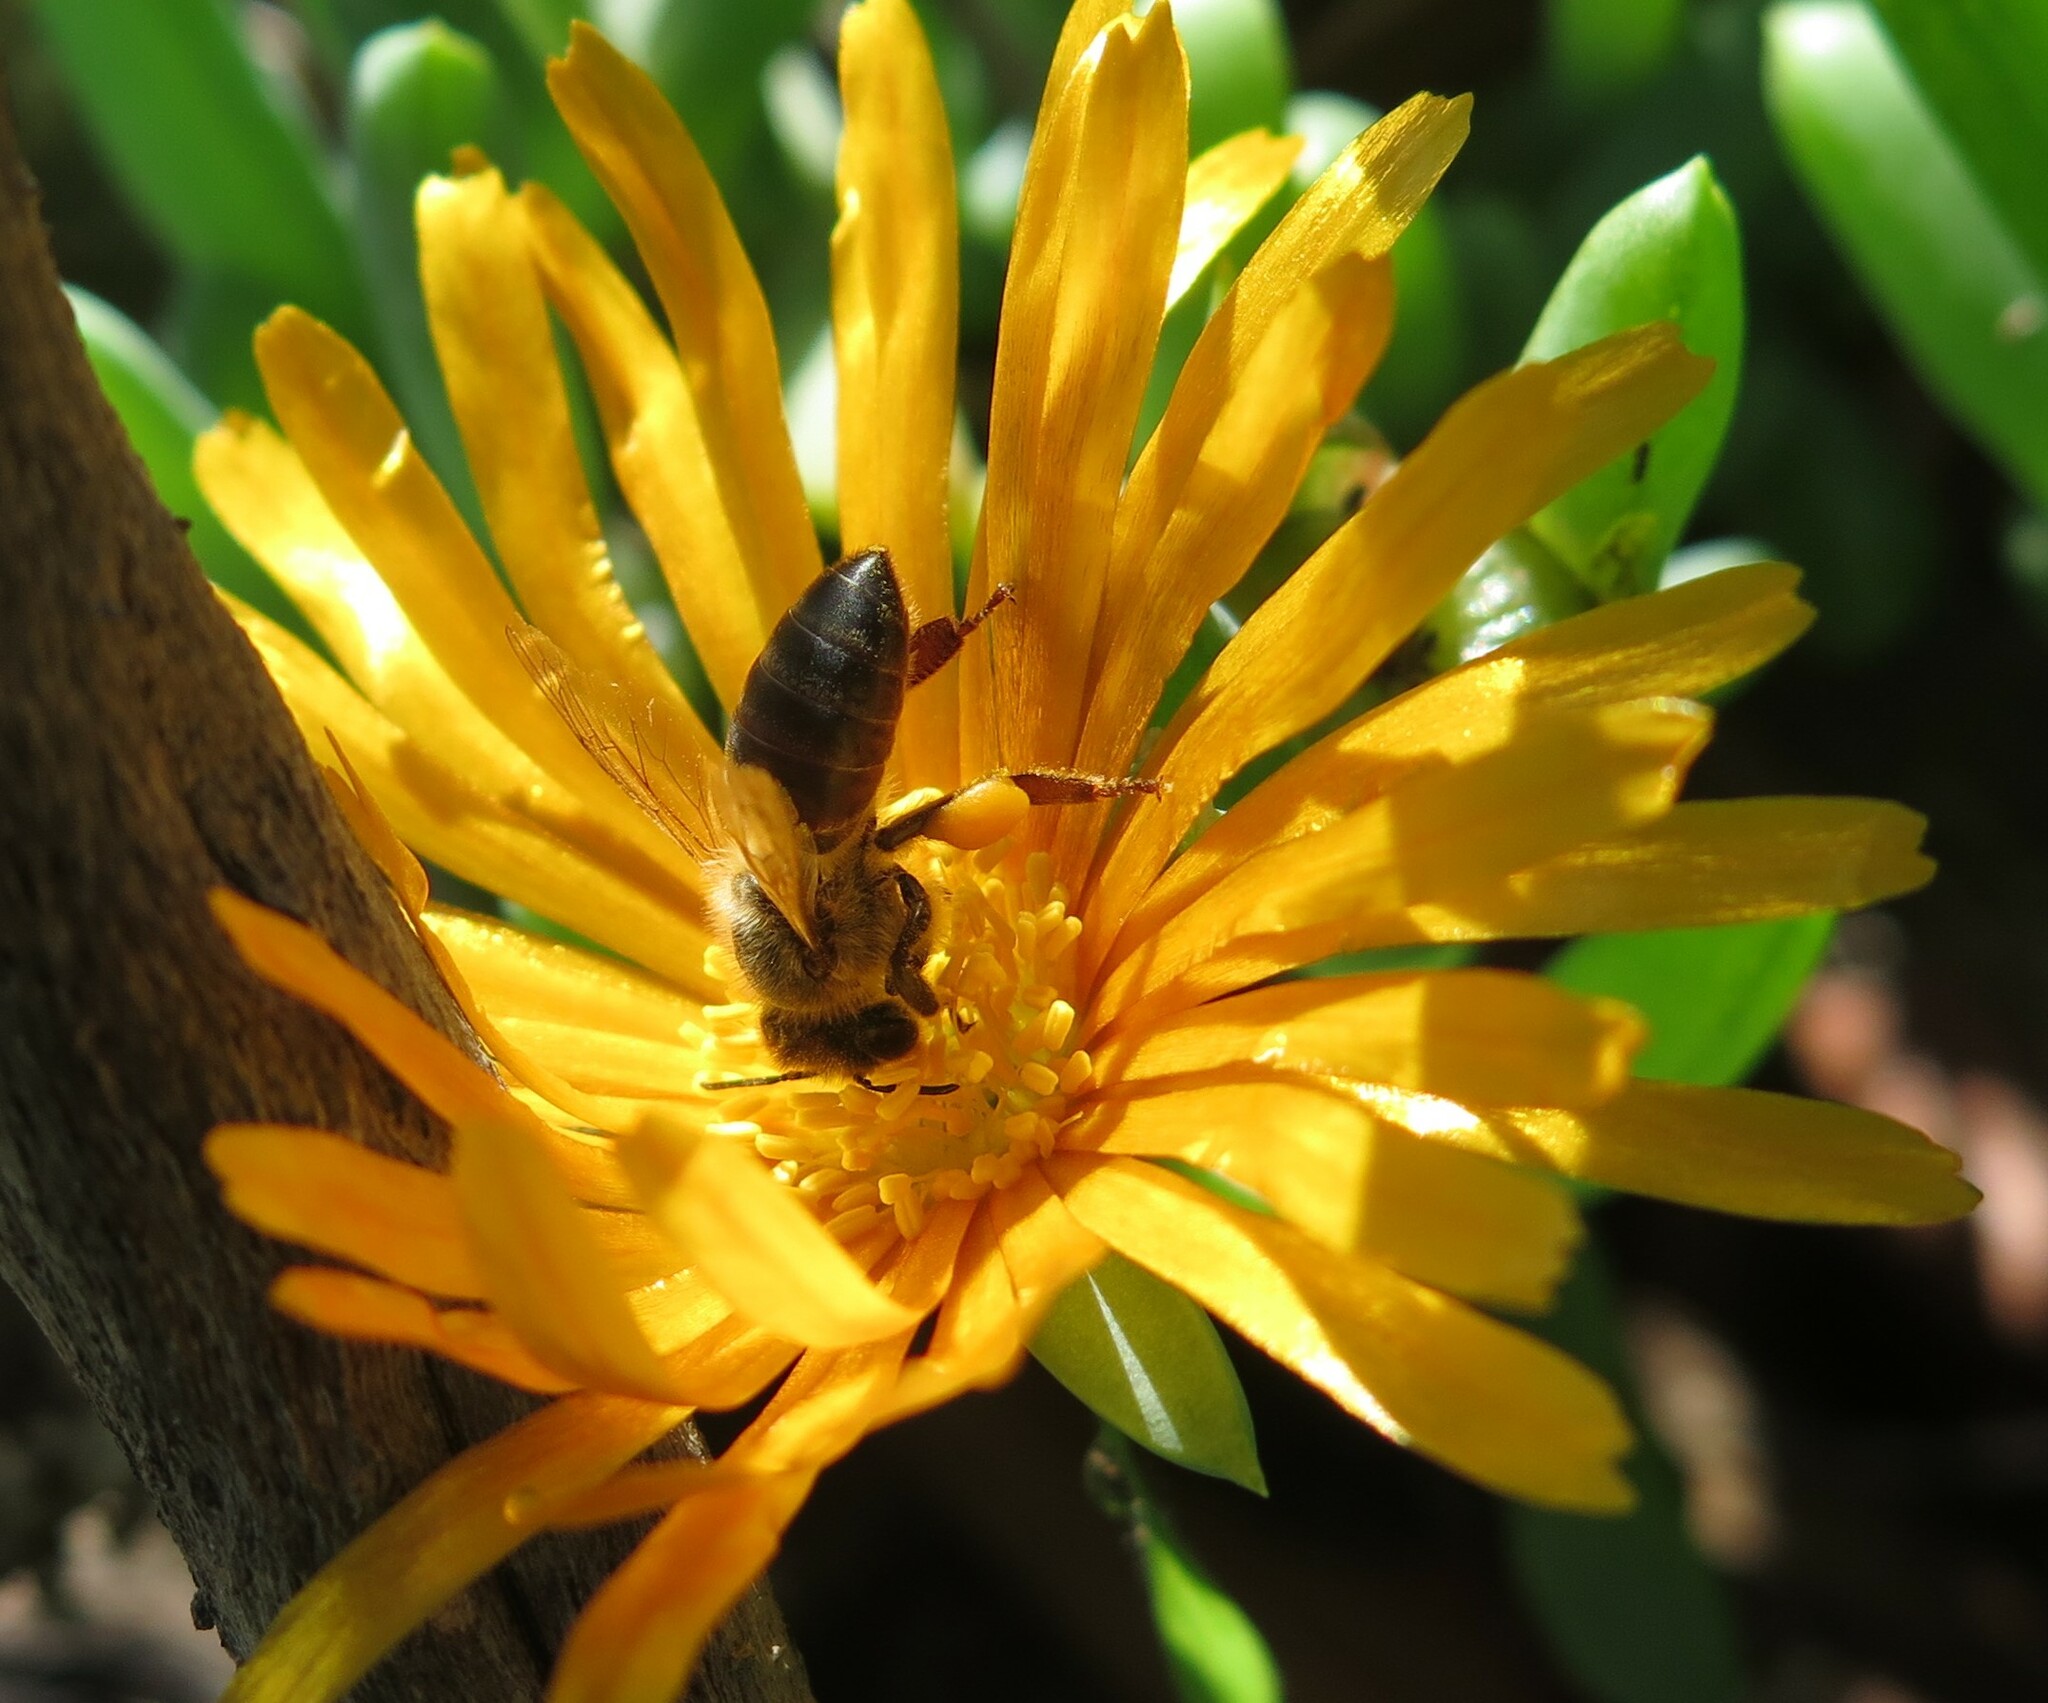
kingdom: Animalia
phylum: Arthropoda
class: Insecta
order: Hymenoptera
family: Apidae
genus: Apis
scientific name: Apis mellifera
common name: Honey bee
